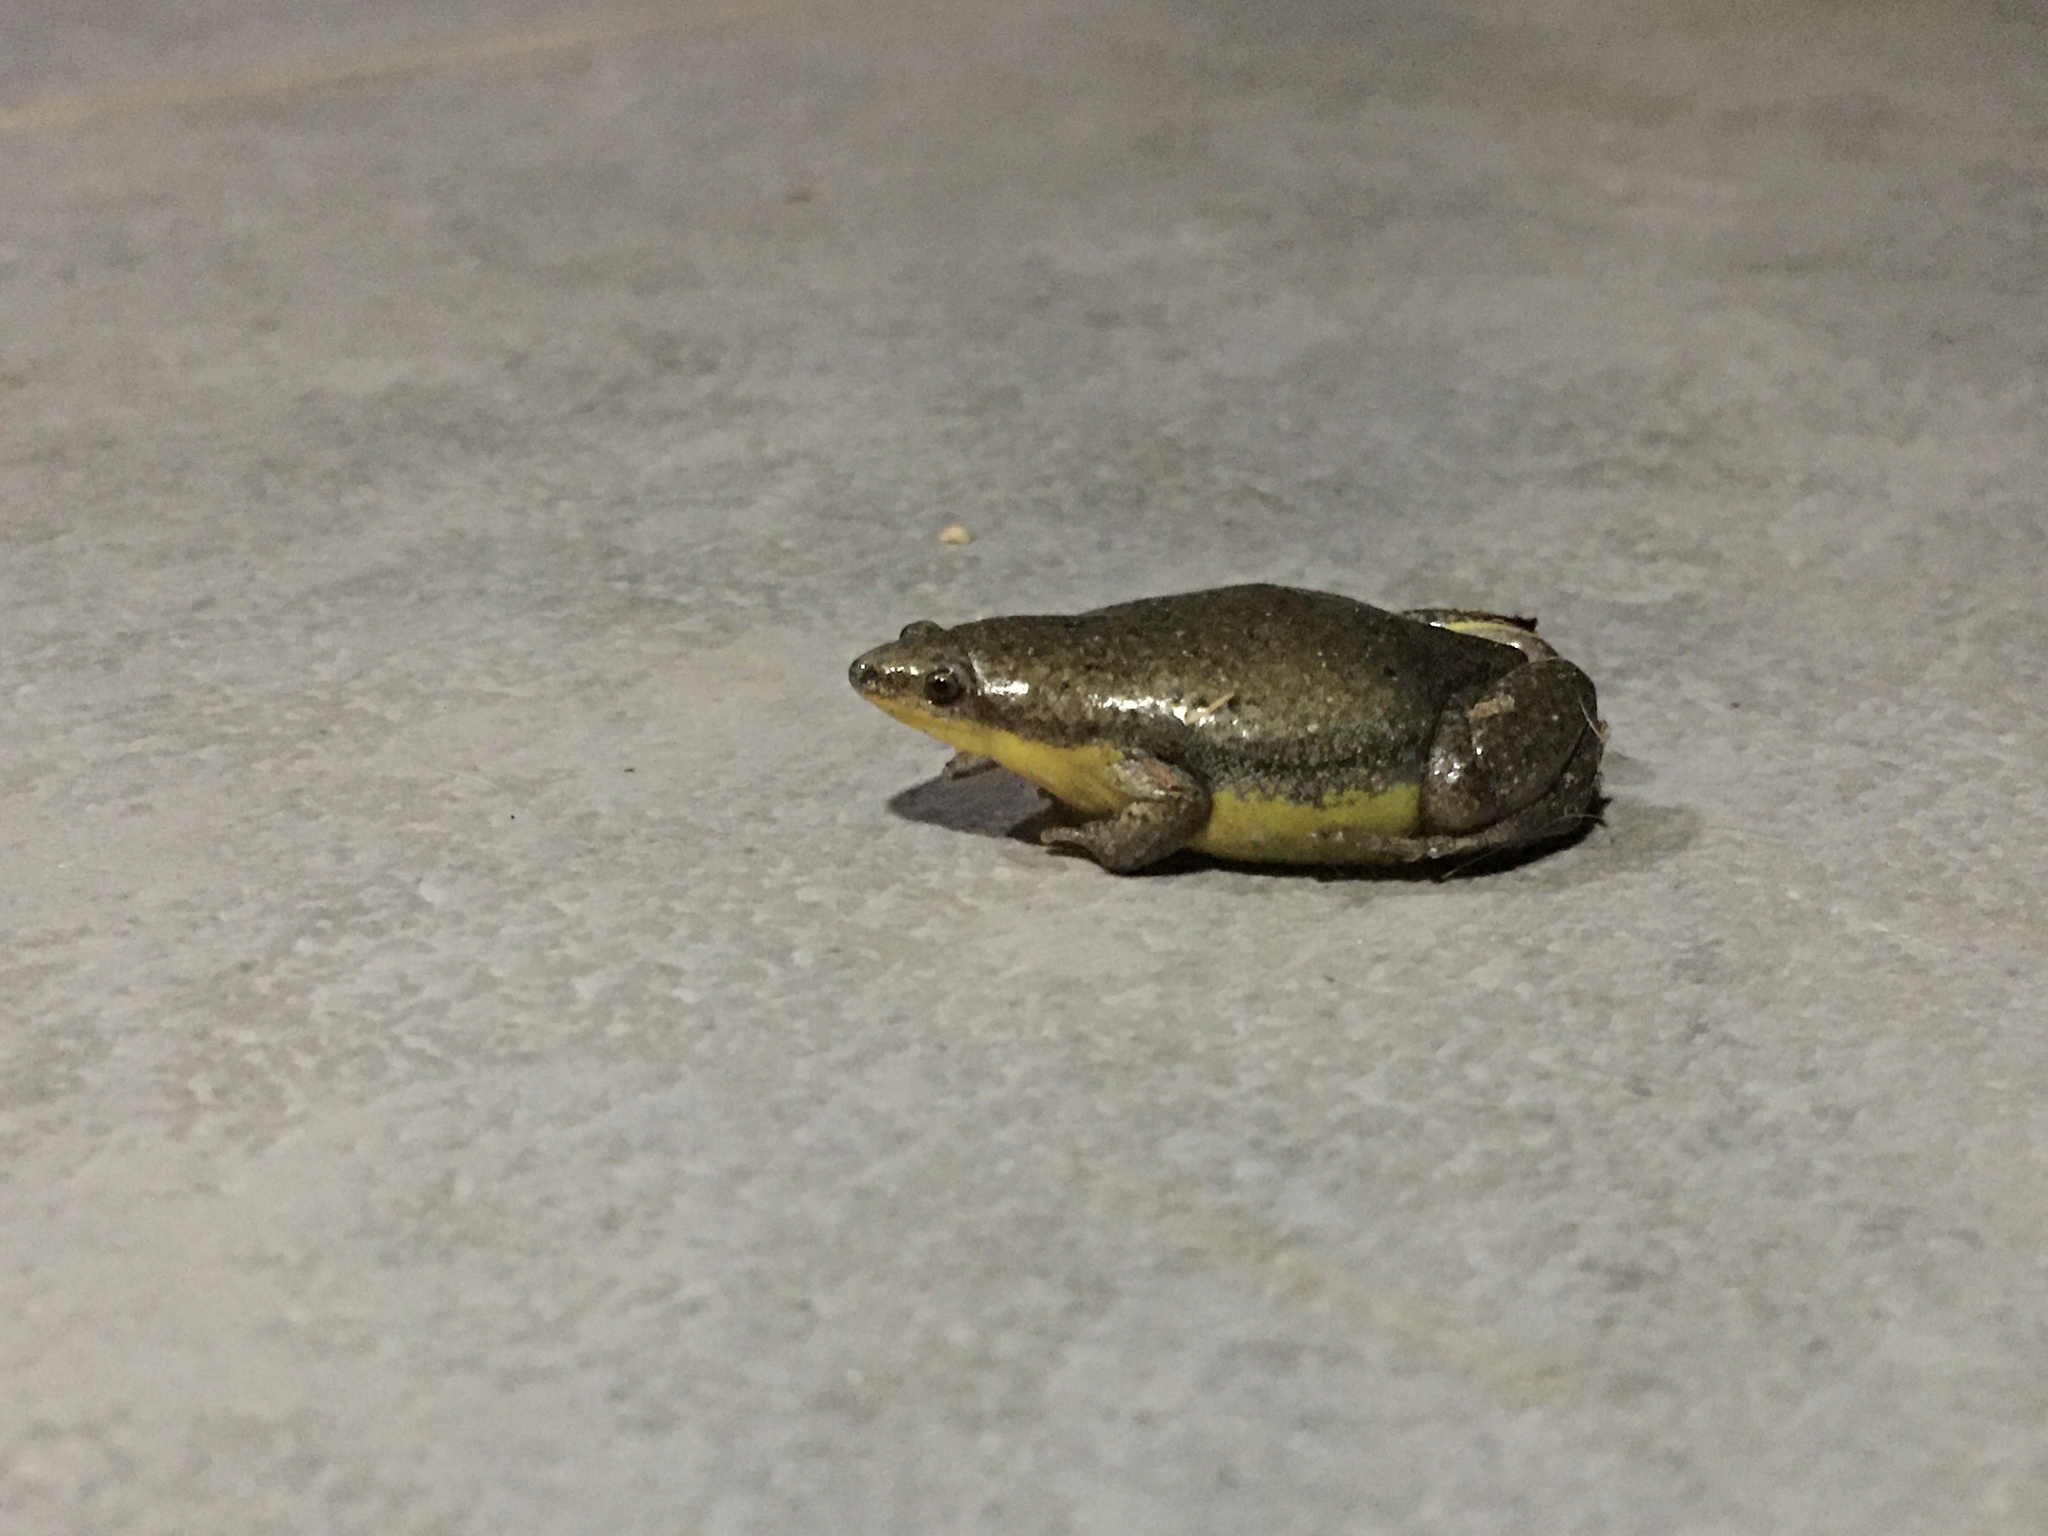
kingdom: Animalia
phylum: Chordata
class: Amphibia
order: Anura
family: Microhylidae
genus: Elachistocleis
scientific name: Elachistocleis bicolor
